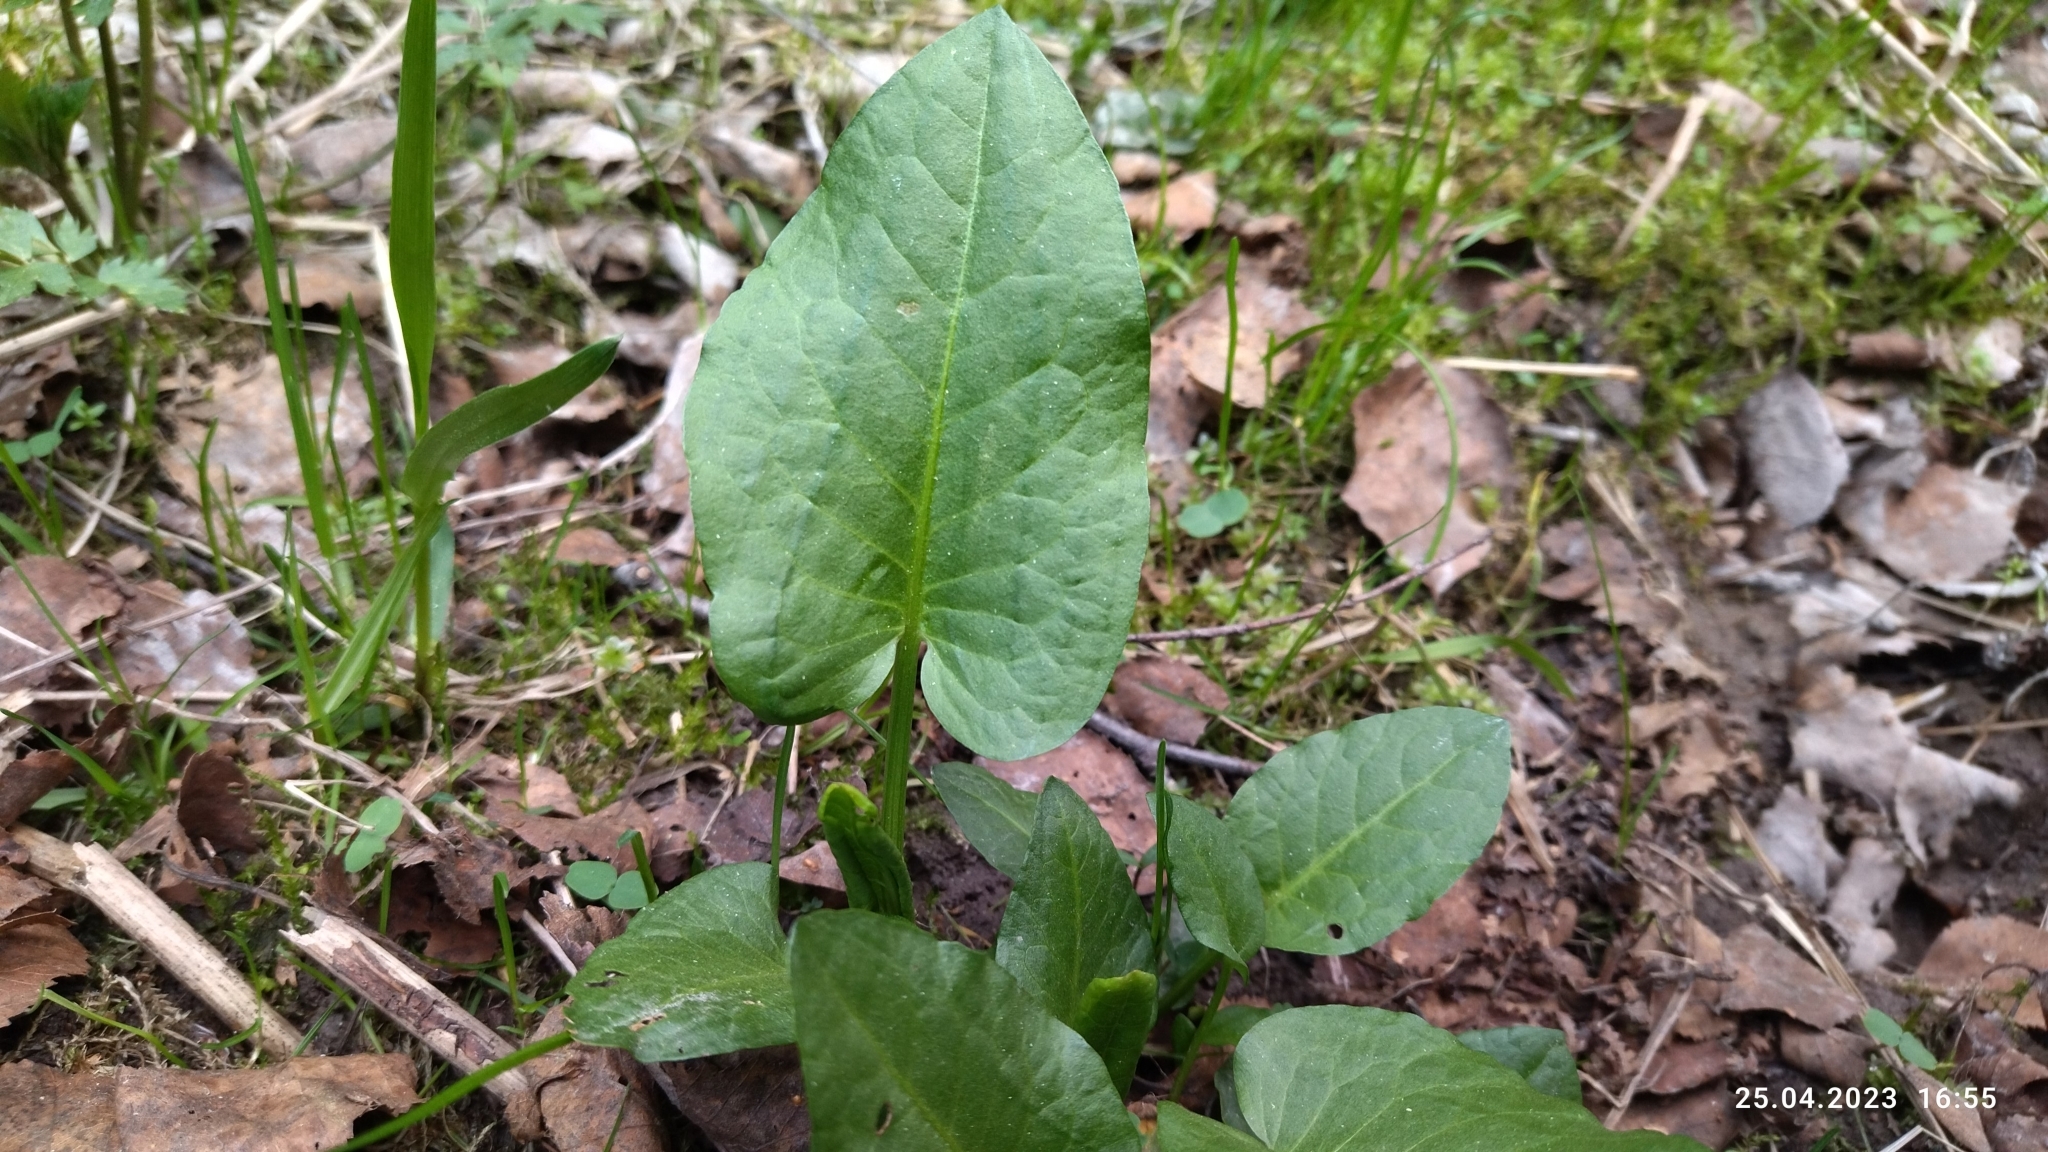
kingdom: Plantae
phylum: Tracheophyta
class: Magnoliopsida
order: Caryophyllales
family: Polygonaceae
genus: Rumex
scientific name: Rumex obtusifolius
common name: Bitter dock
